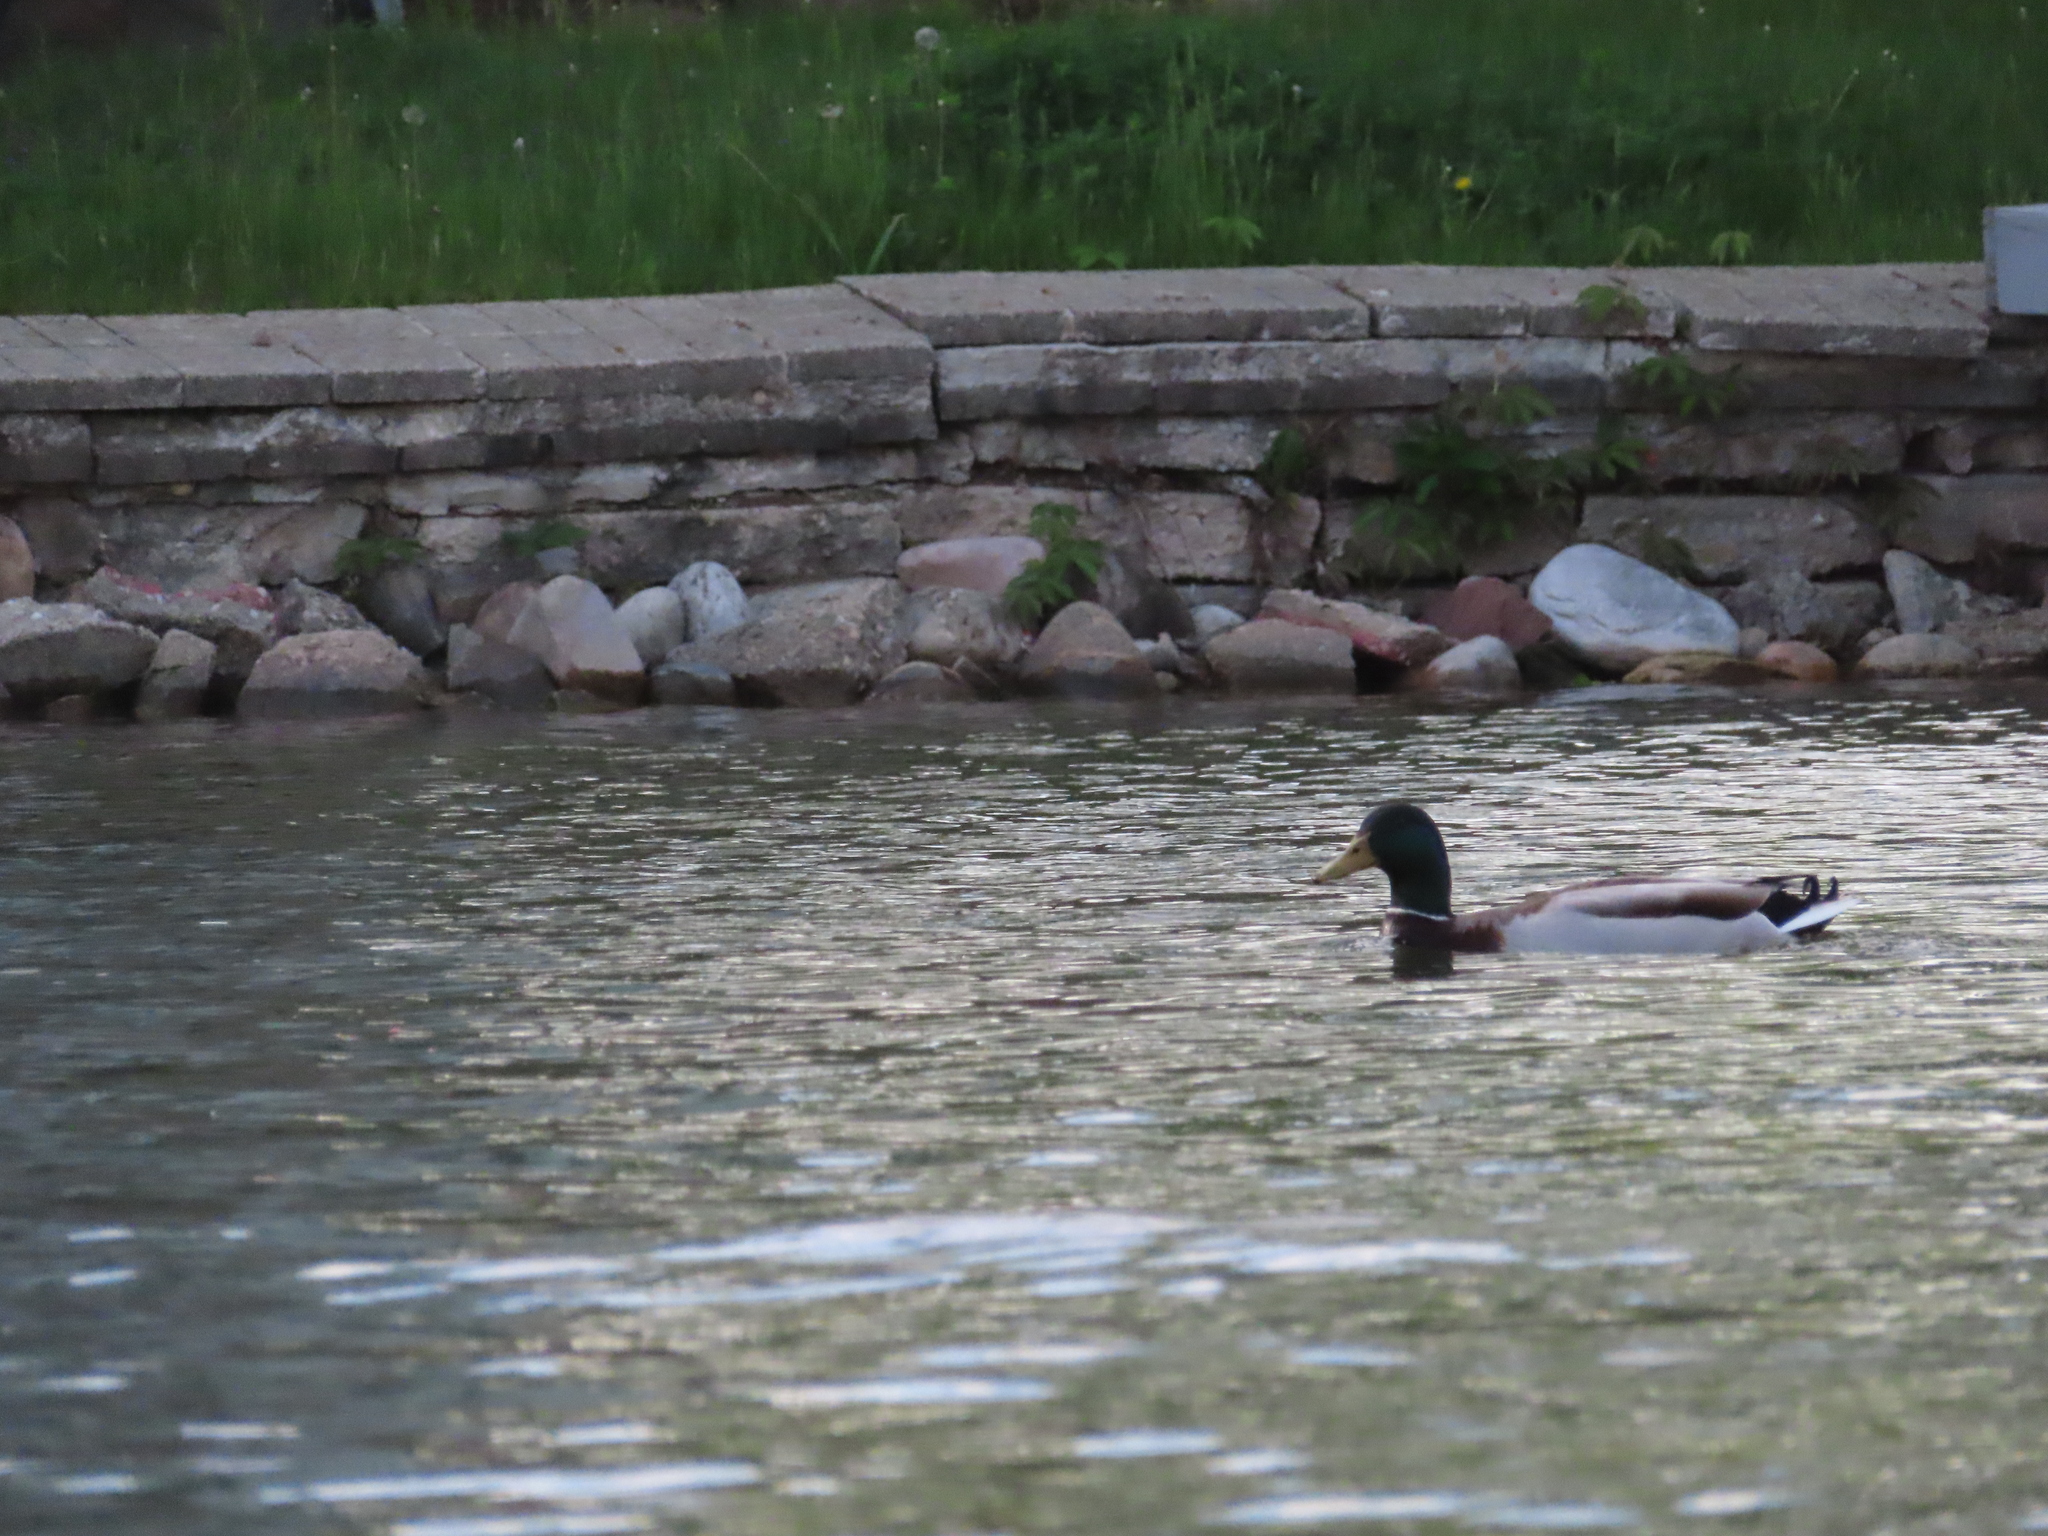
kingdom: Animalia
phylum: Chordata
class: Aves
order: Anseriformes
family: Anatidae
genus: Anas
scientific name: Anas platyrhynchos
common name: Mallard
